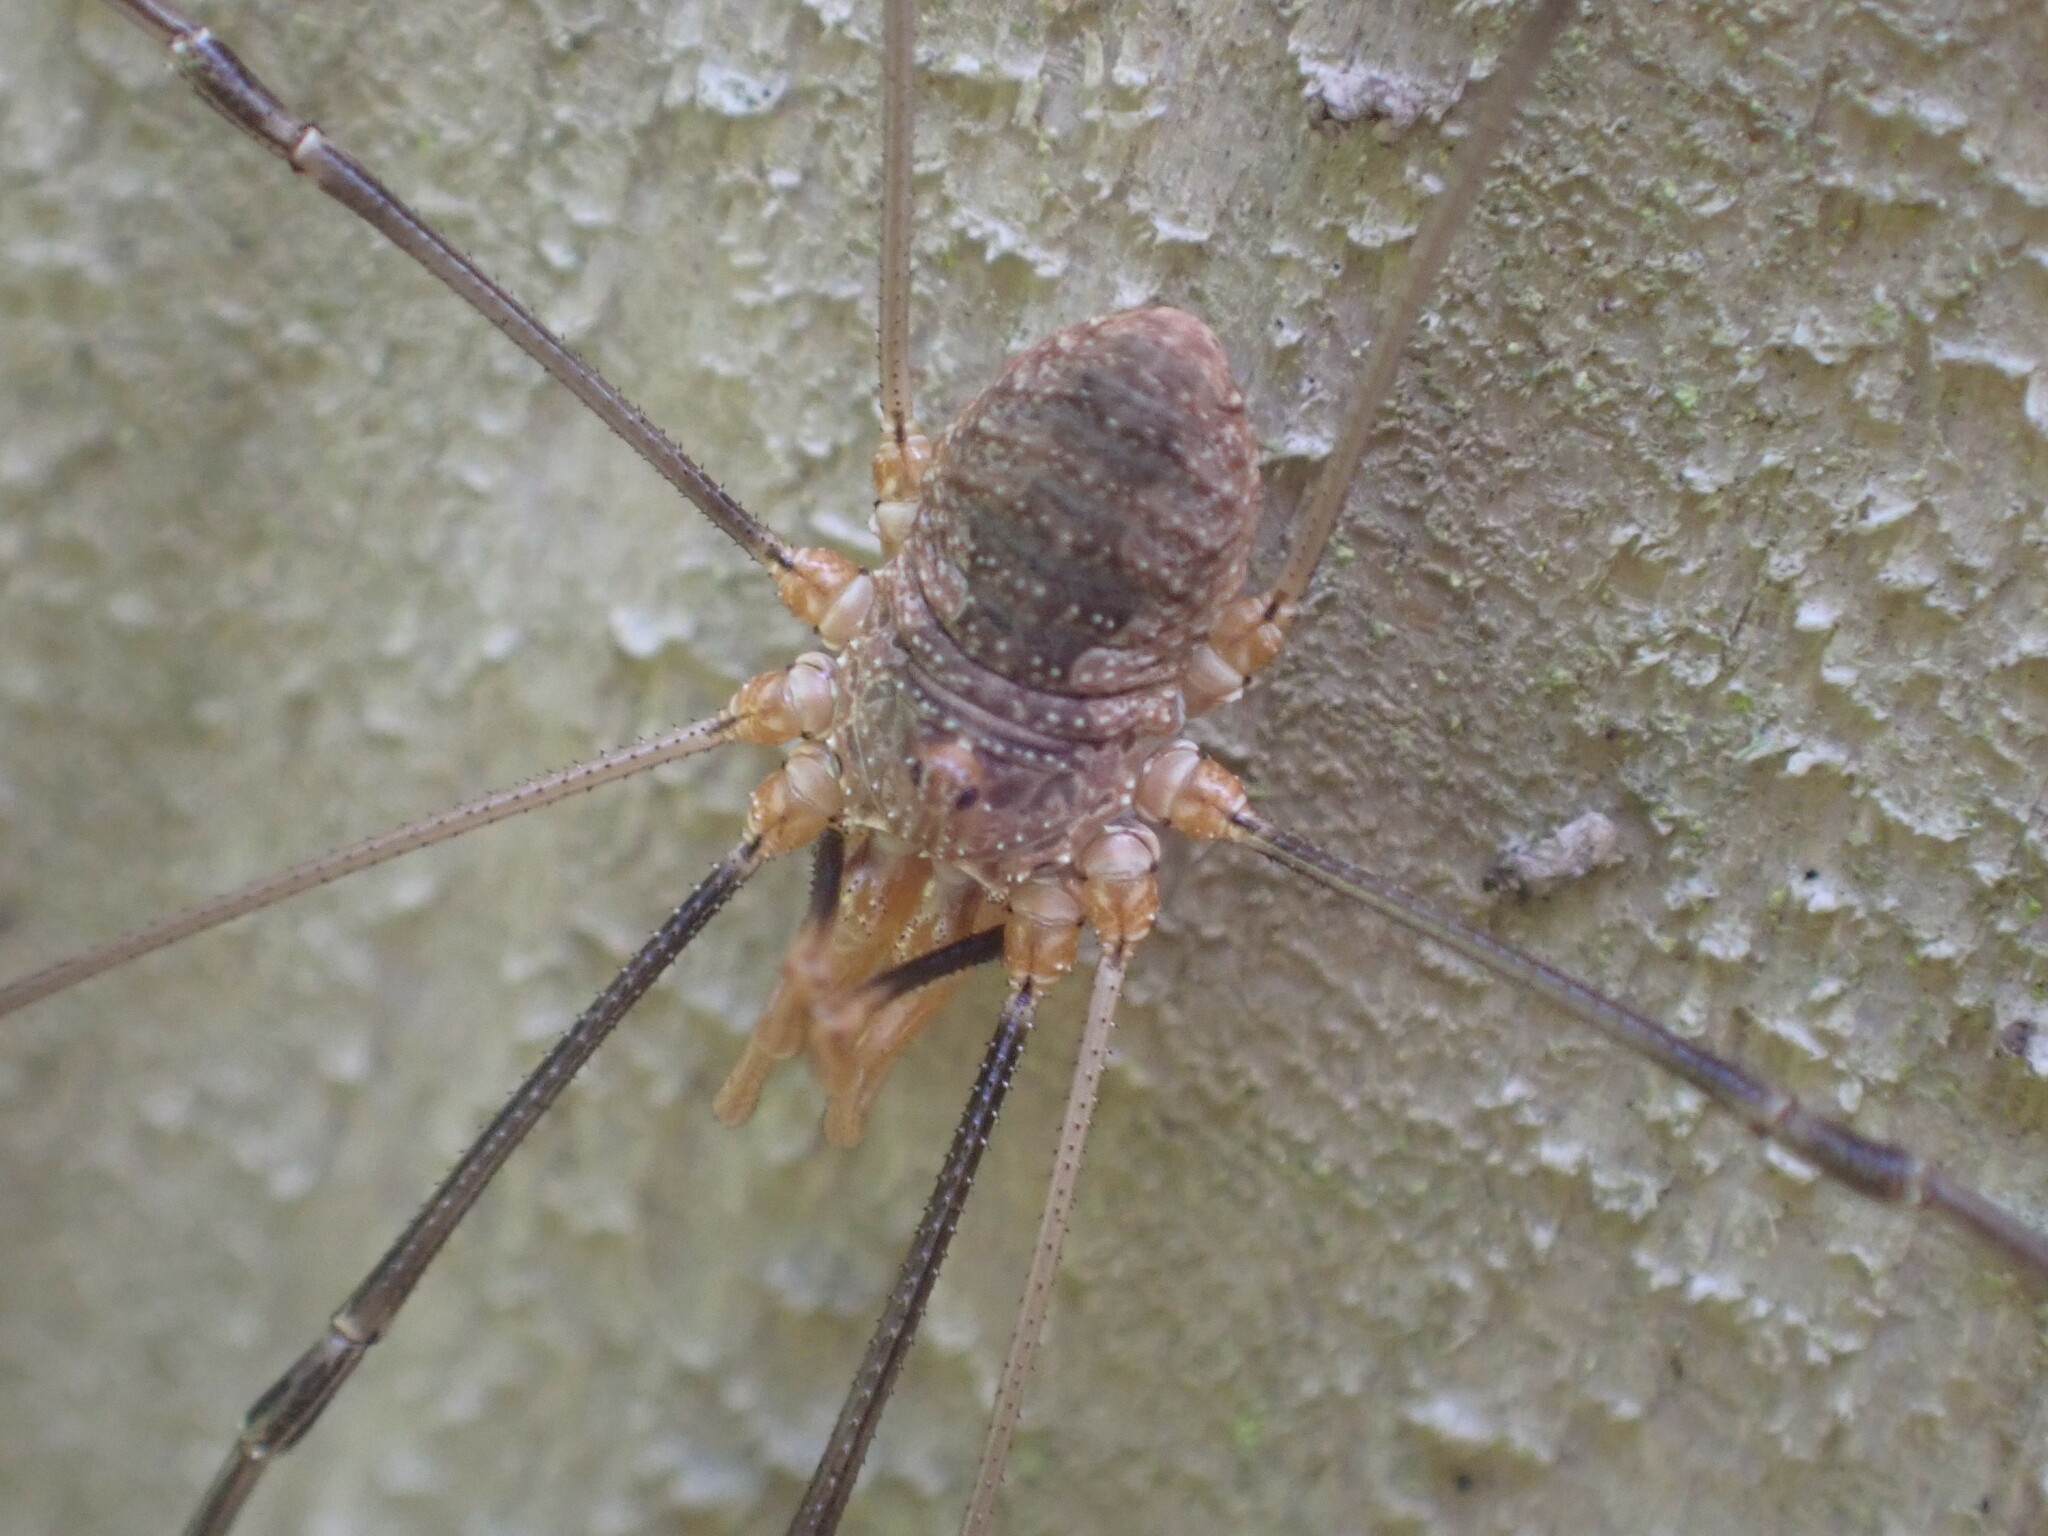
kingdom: Animalia
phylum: Arthropoda
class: Arachnida
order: Opiliones
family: Phalangiidae
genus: Phalangium
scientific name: Phalangium opilio
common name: Daddy longleg
